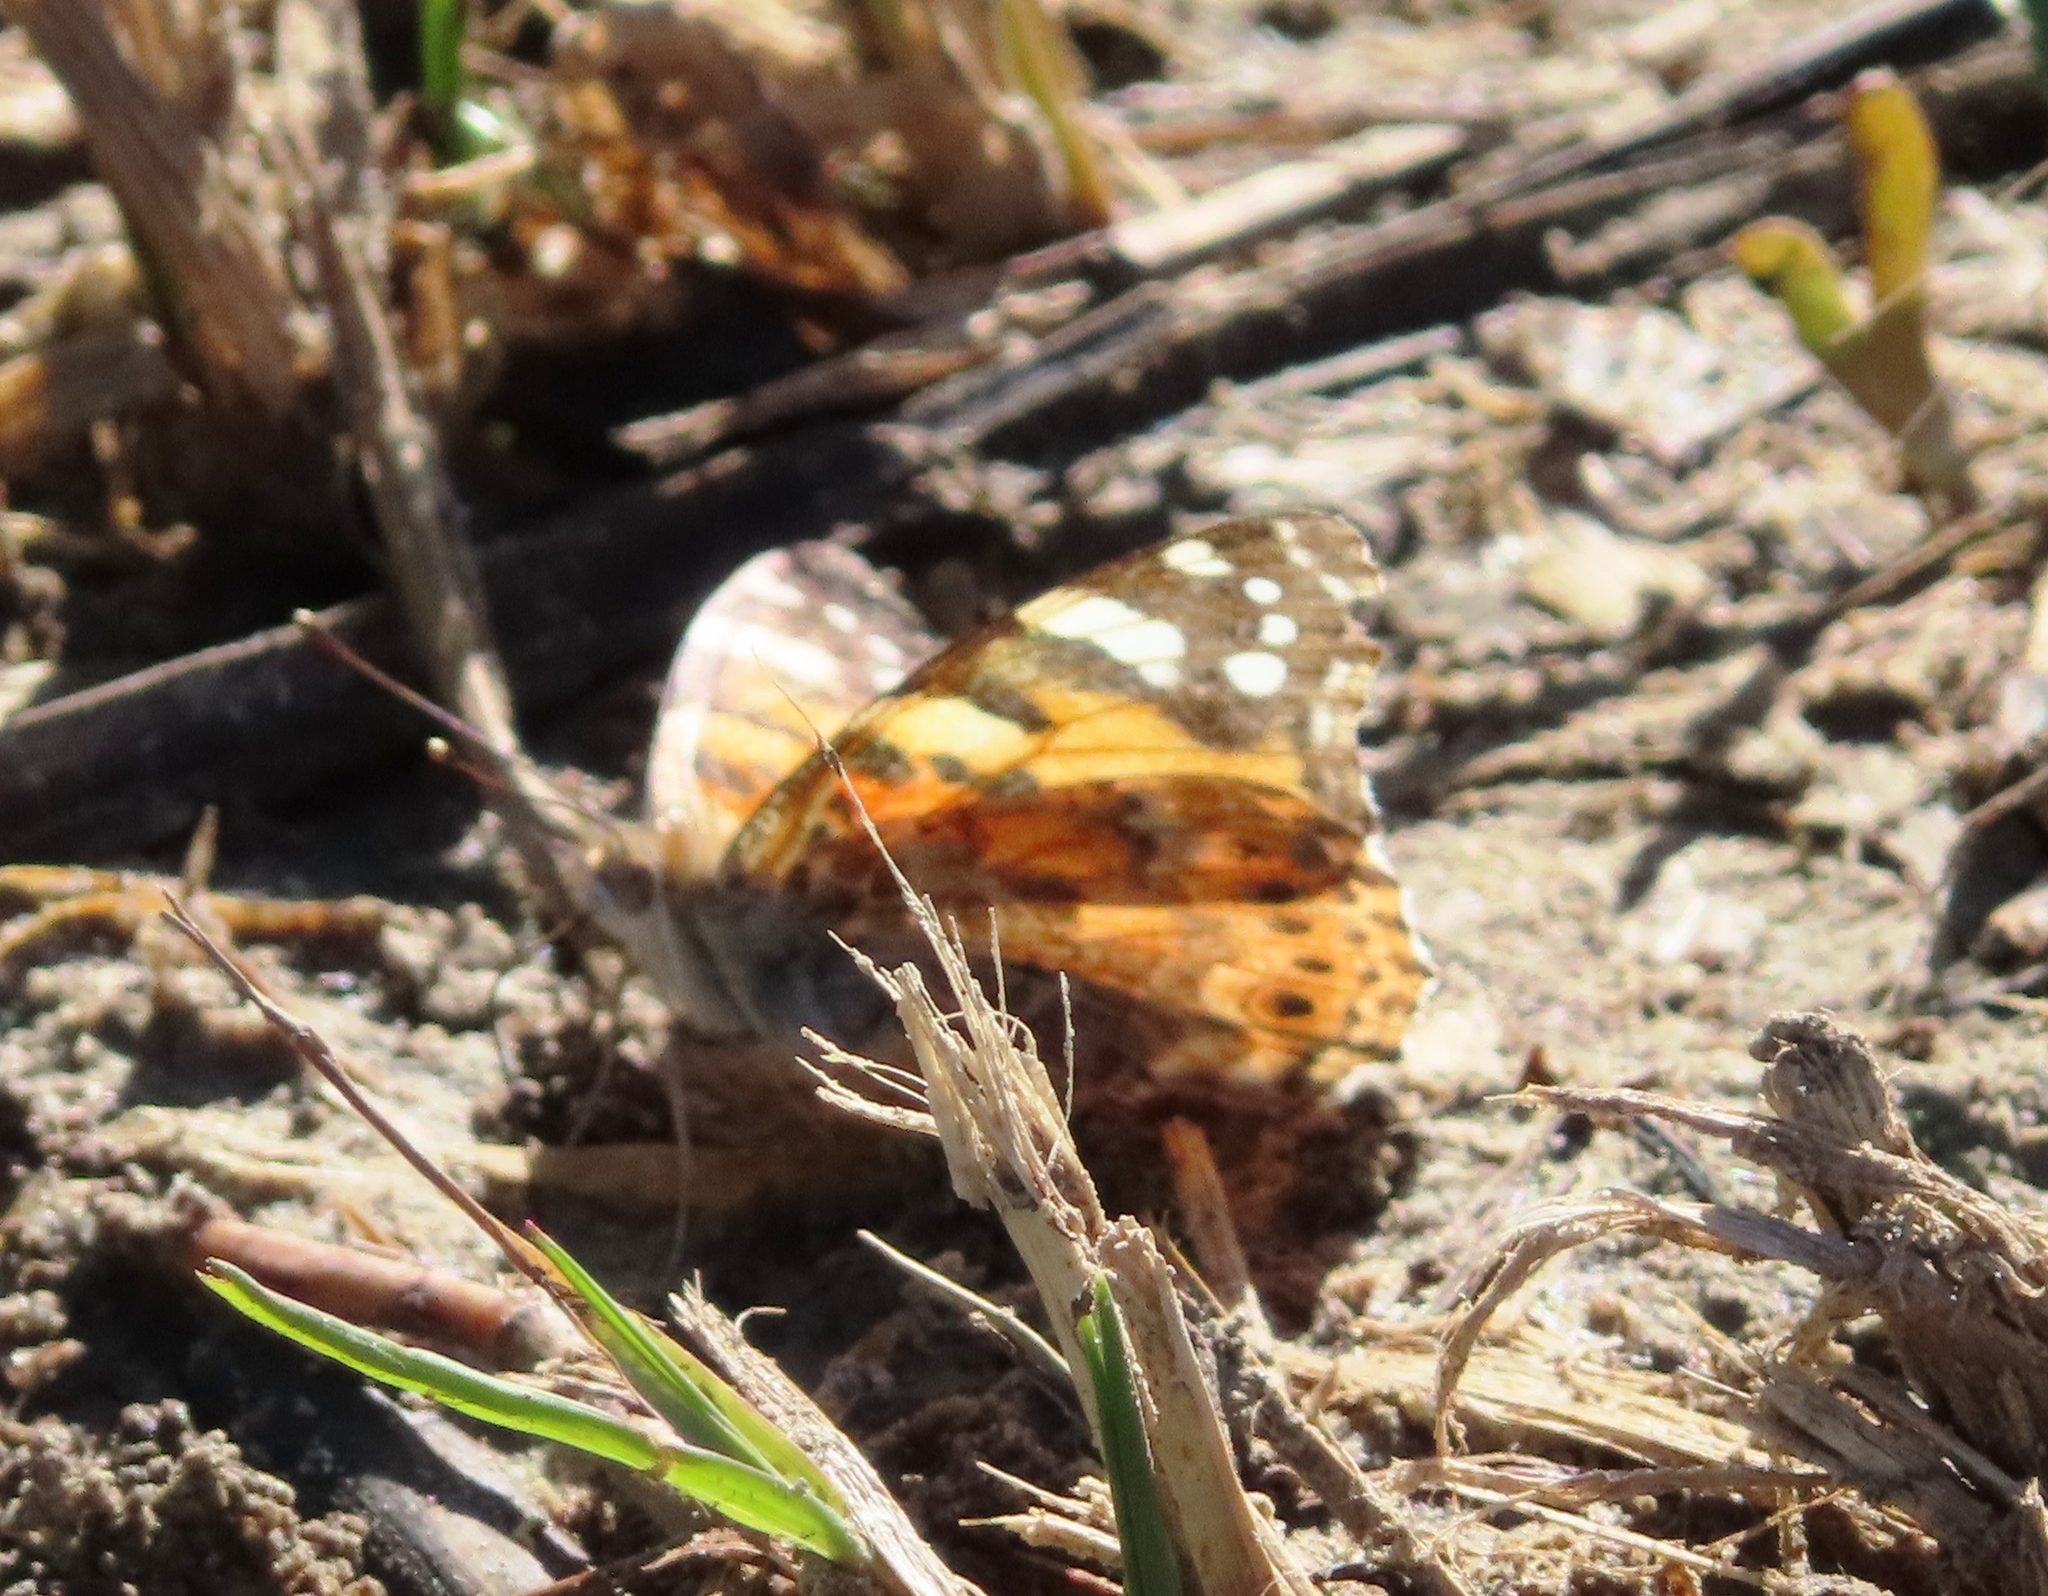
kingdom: Animalia
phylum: Arthropoda
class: Insecta
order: Lepidoptera
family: Nymphalidae
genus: Vanessa
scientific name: Vanessa cardui
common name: Painted lady
